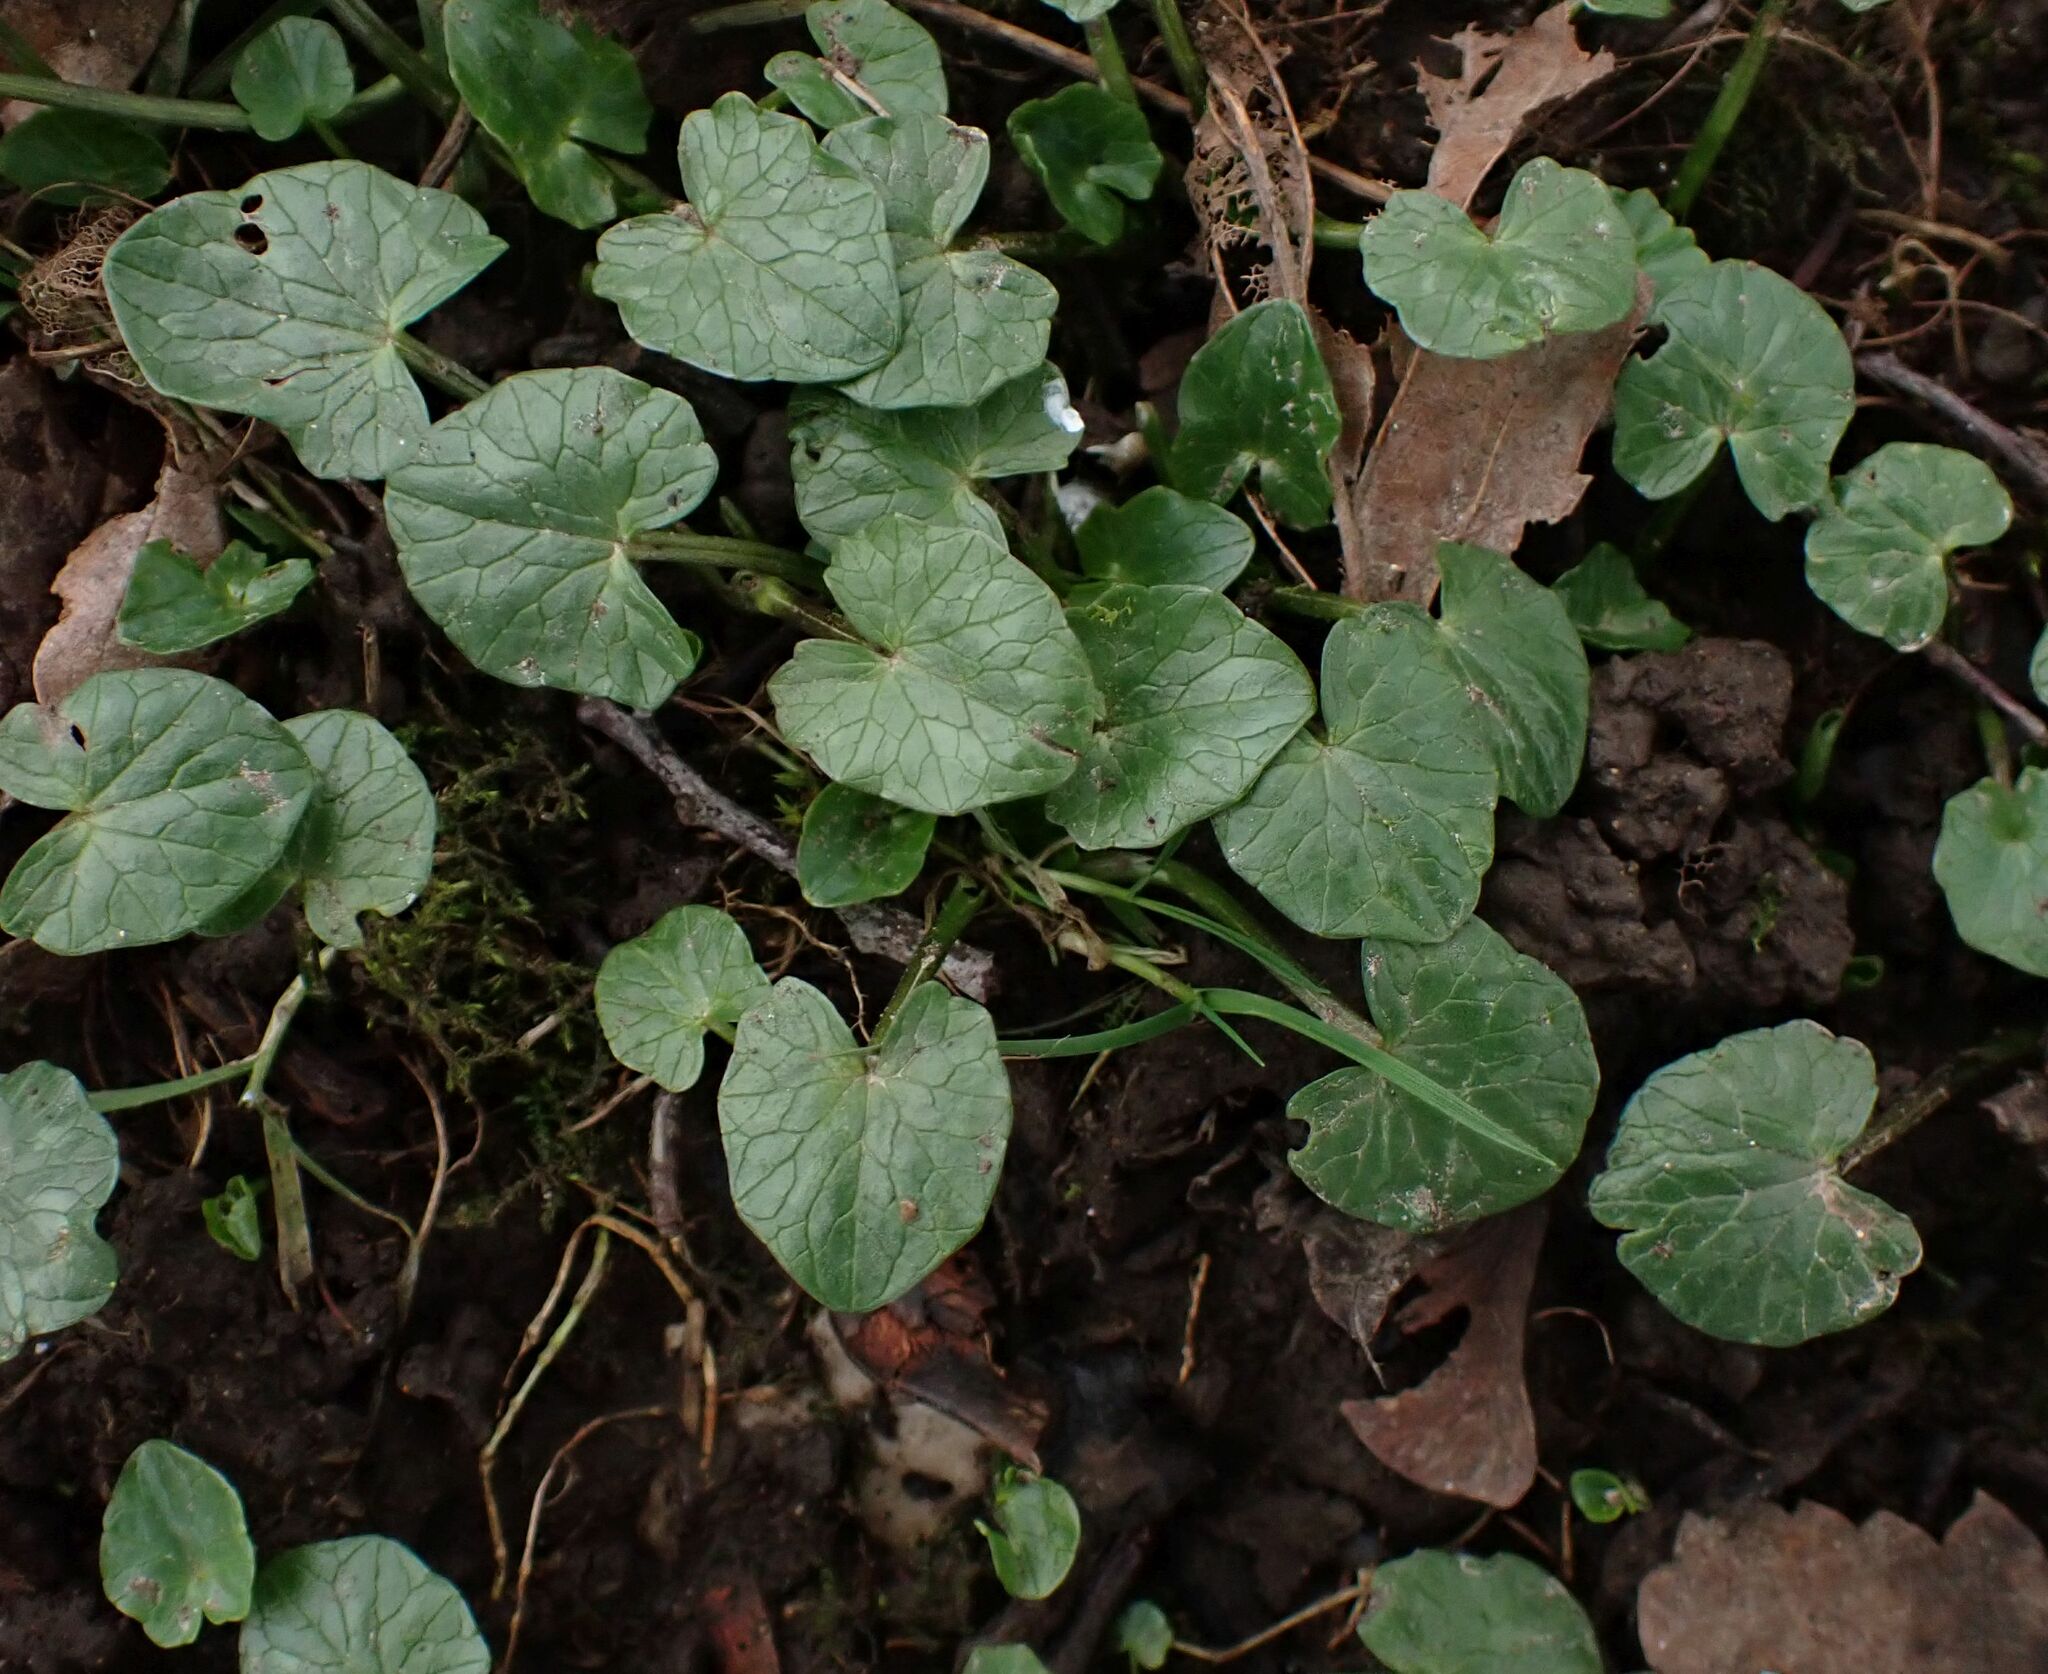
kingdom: Plantae
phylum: Tracheophyta
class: Magnoliopsida
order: Ranunculales
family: Ranunculaceae
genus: Ficaria
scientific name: Ficaria verna
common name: Lesser celandine
